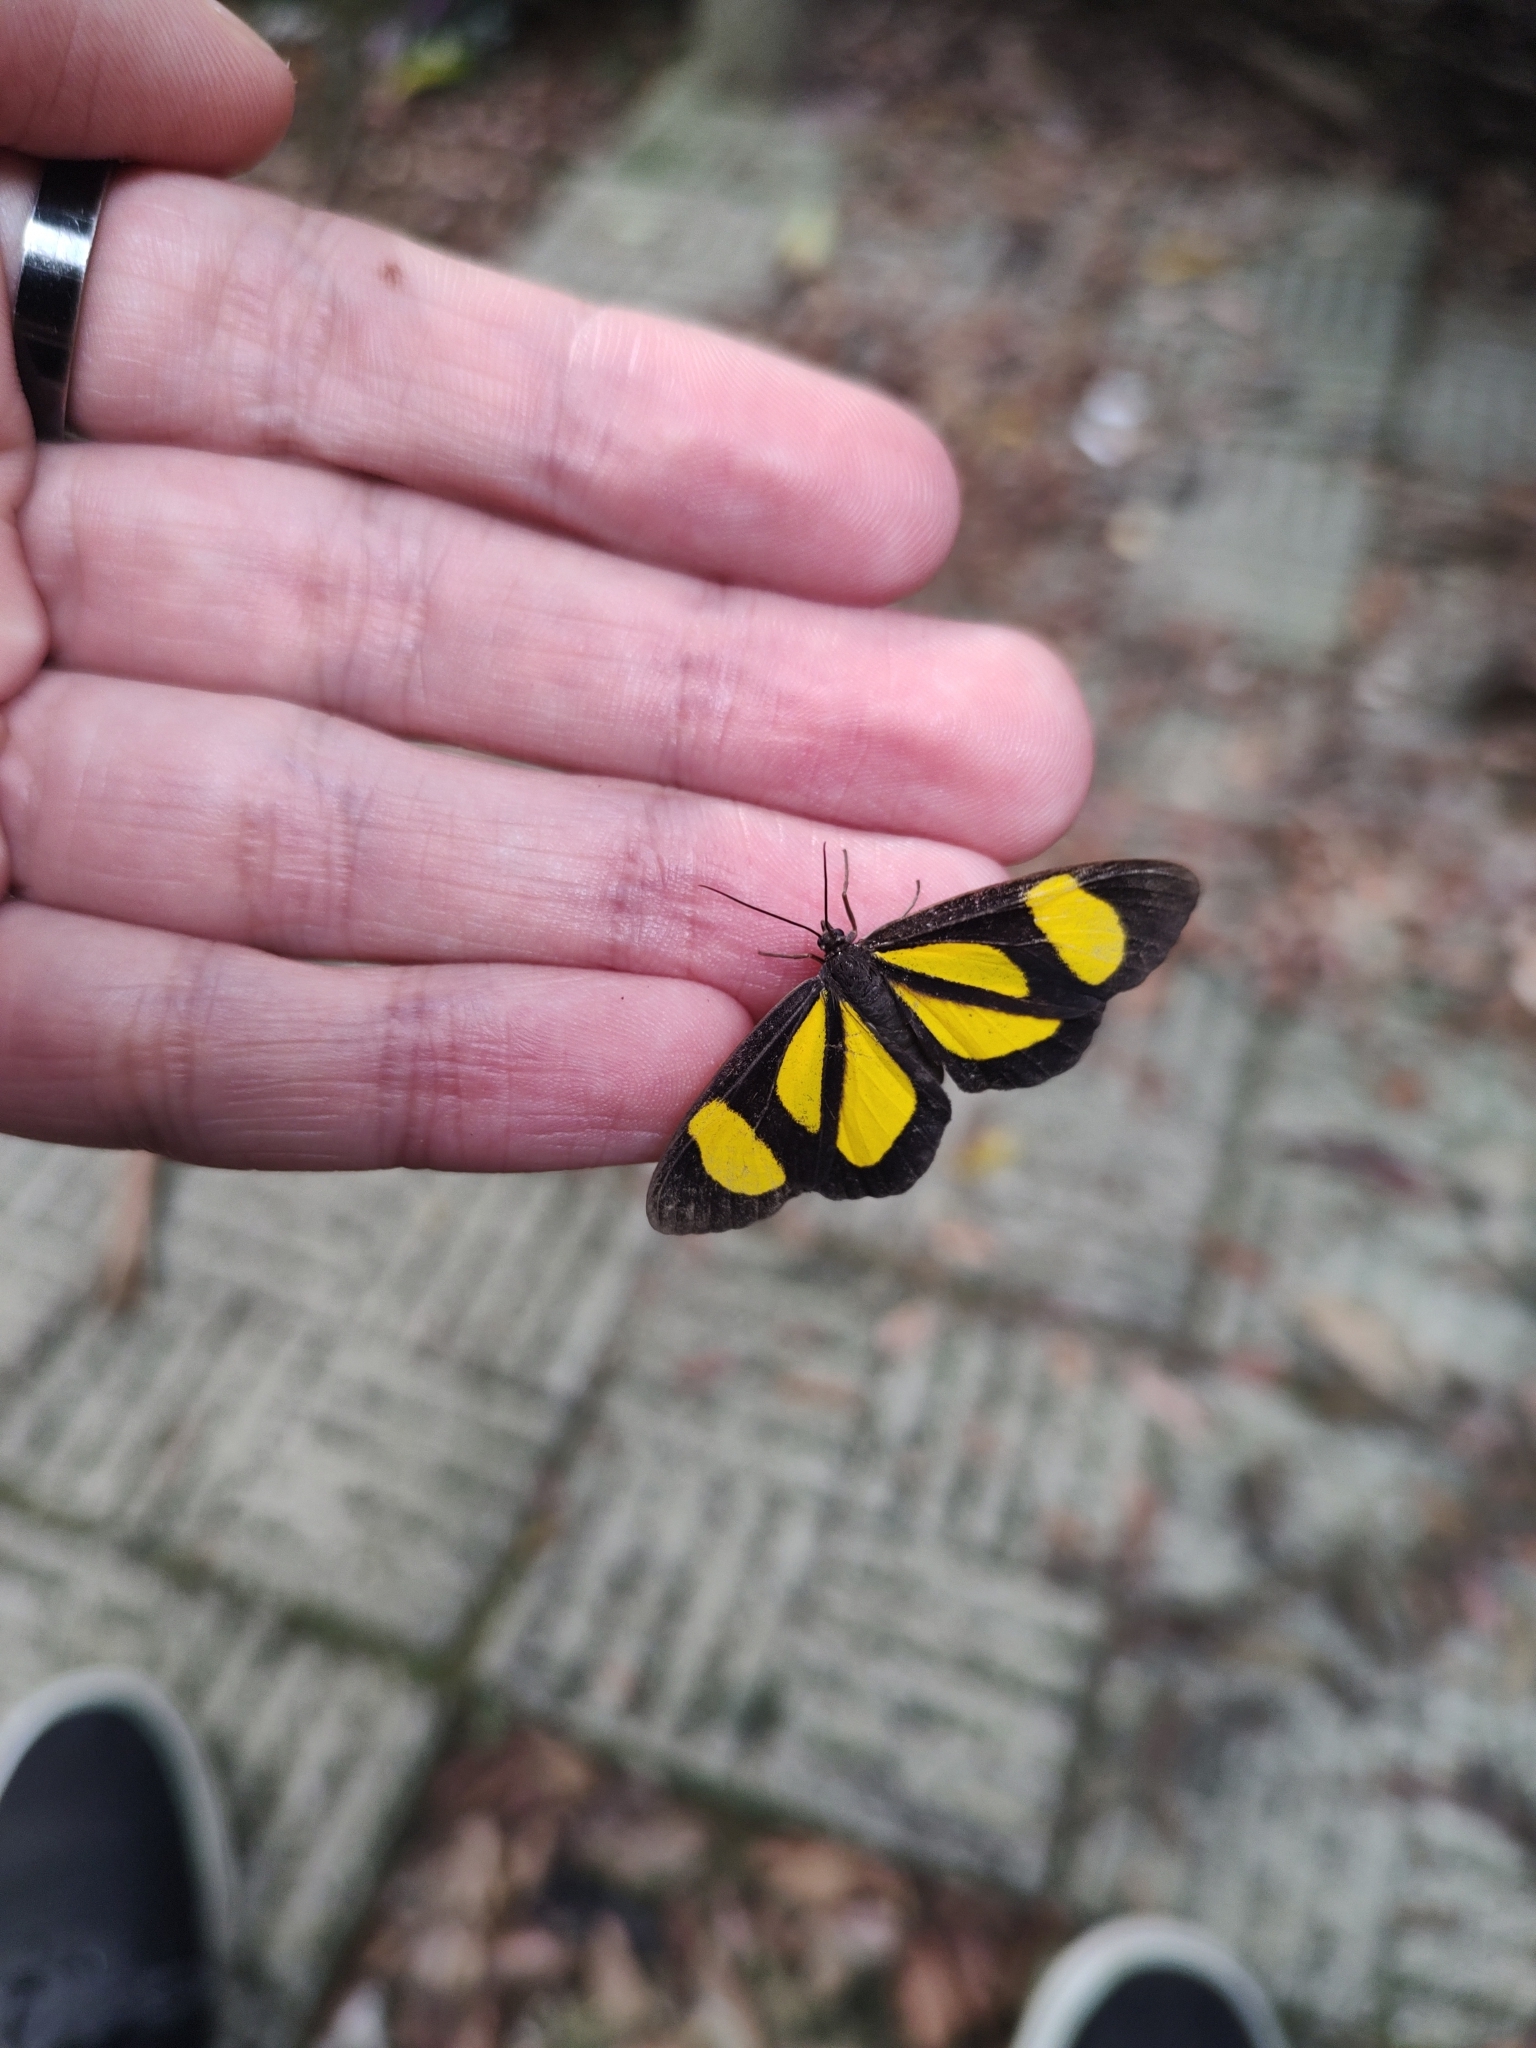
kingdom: Animalia
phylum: Arthropoda
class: Insecta
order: Lepidoptera
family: Geometridae
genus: Cyllopoda
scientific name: Cyllopoda bipuncta
